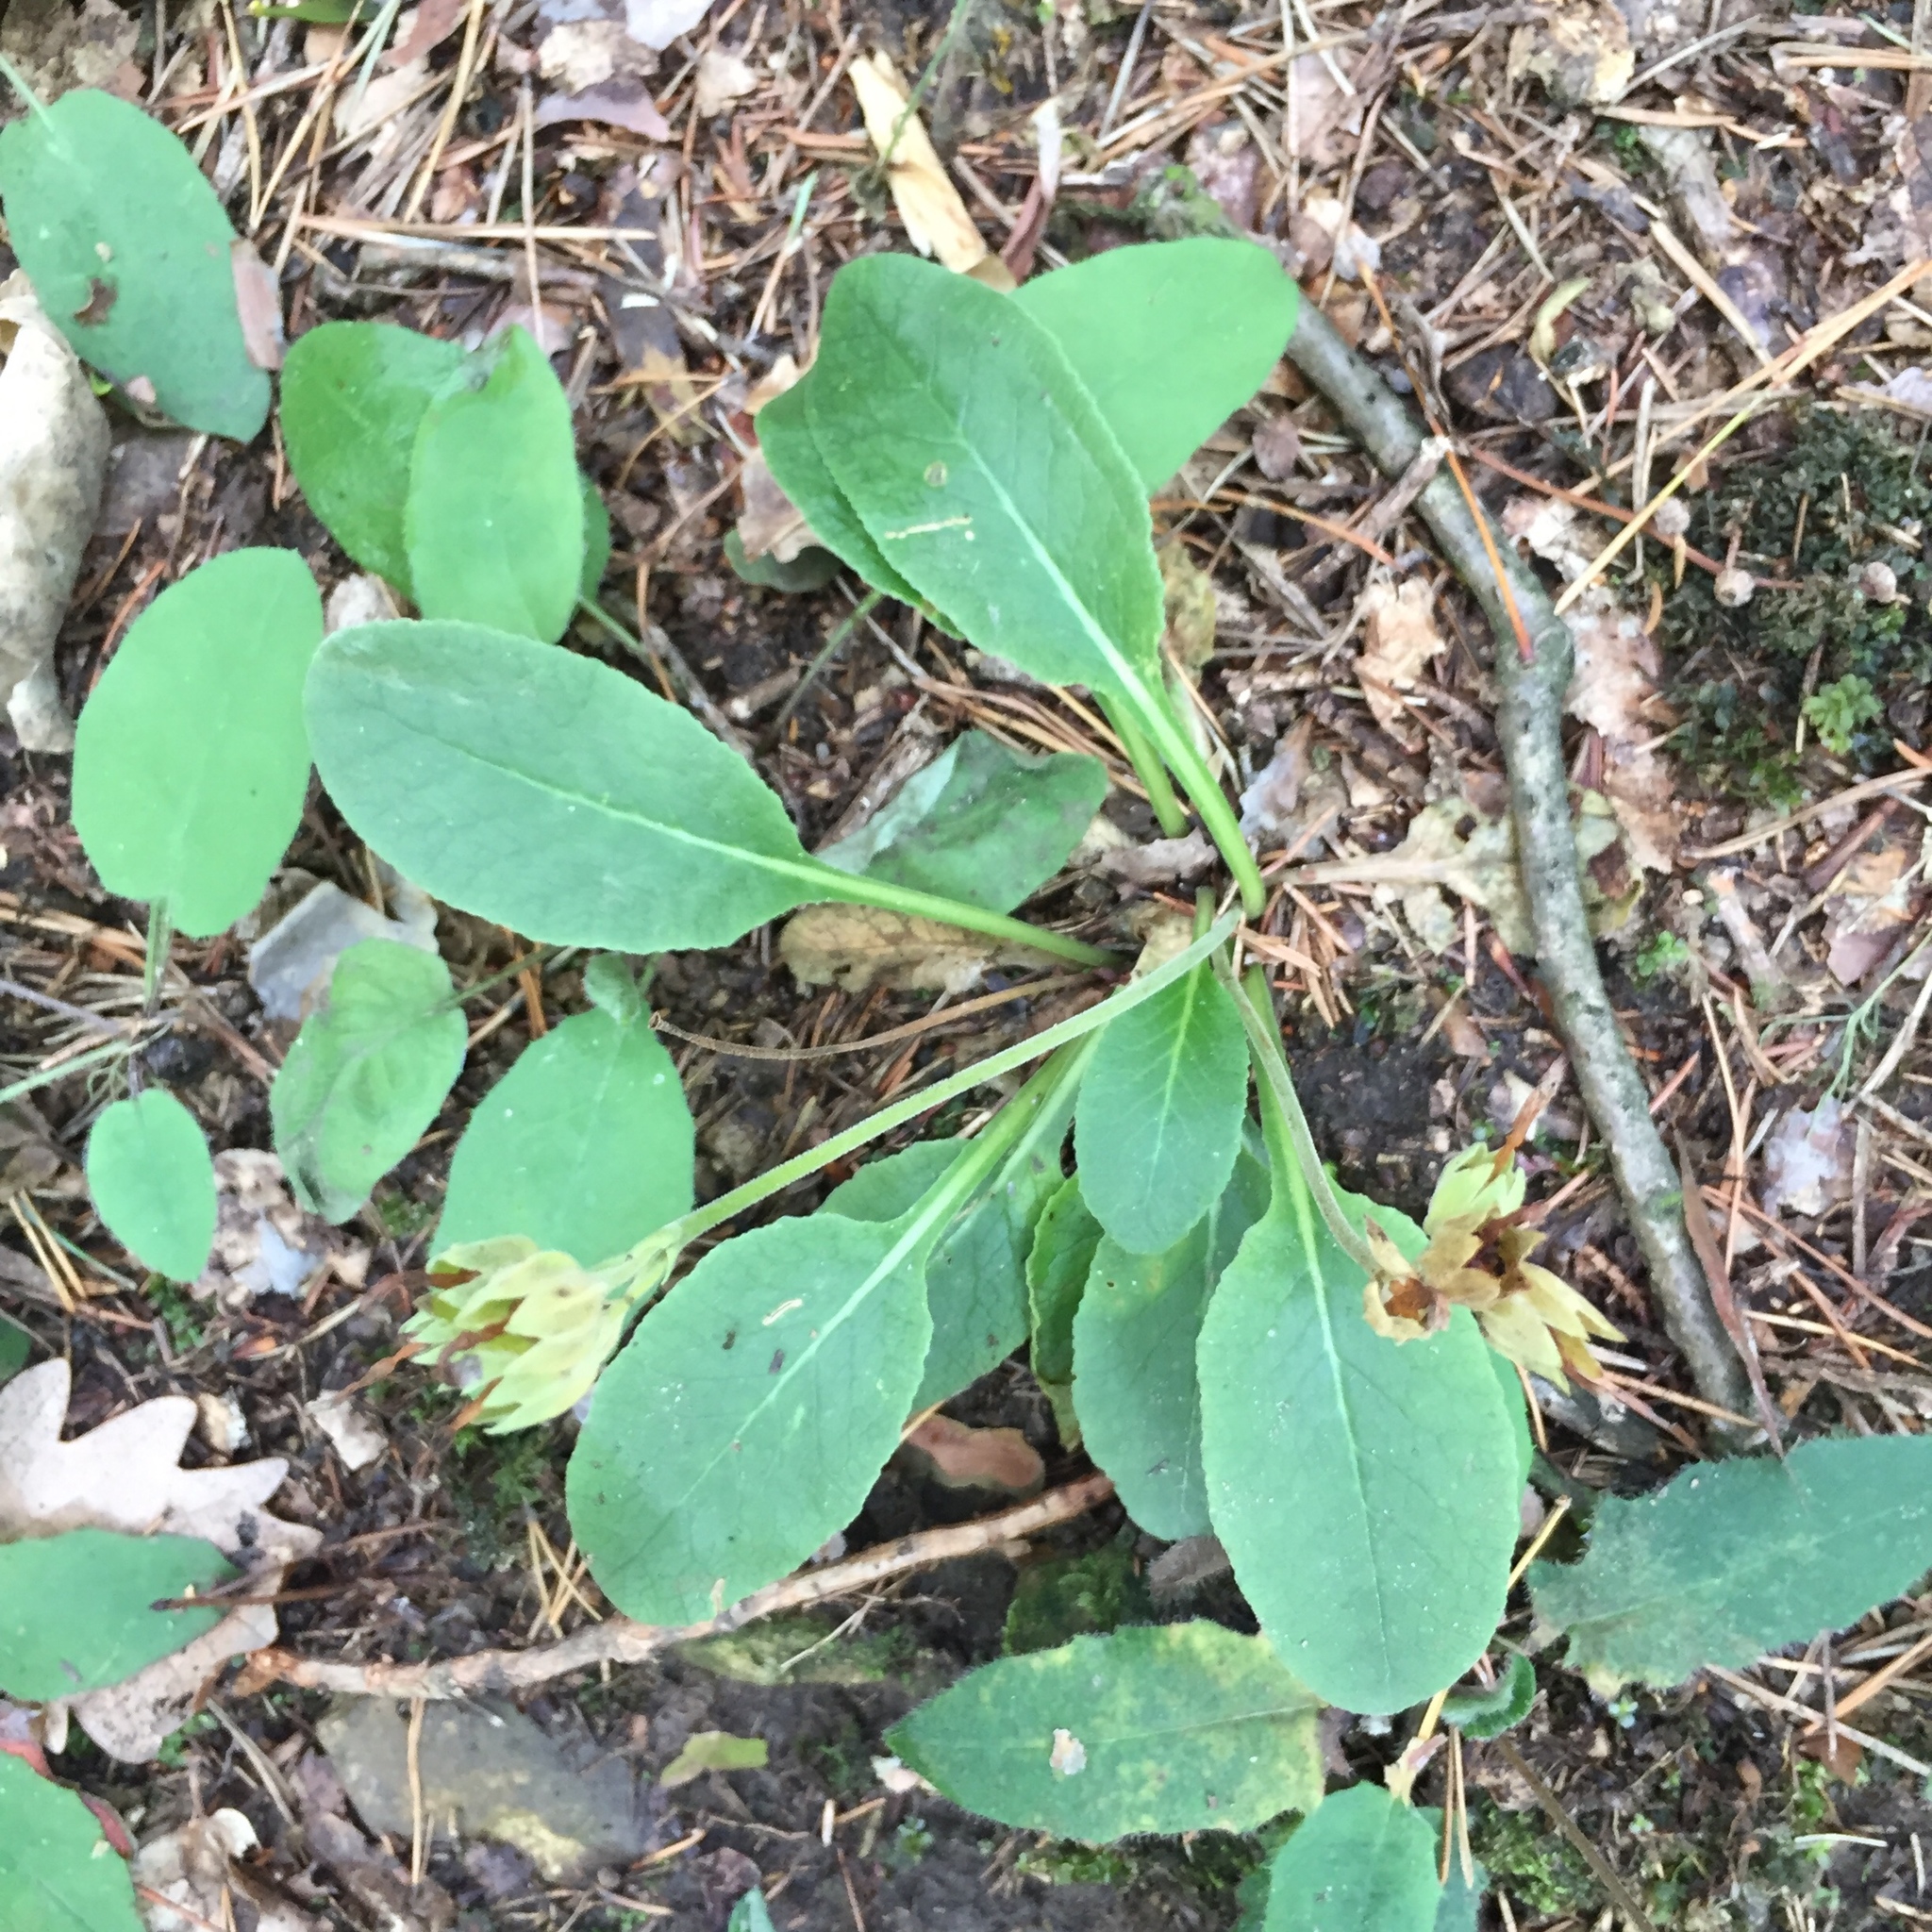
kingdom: Plantae
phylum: Tracheophyta
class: Magnoliopsida
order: Ericales
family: Primulaceae
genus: Primula
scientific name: Primula veris
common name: Cowslip
